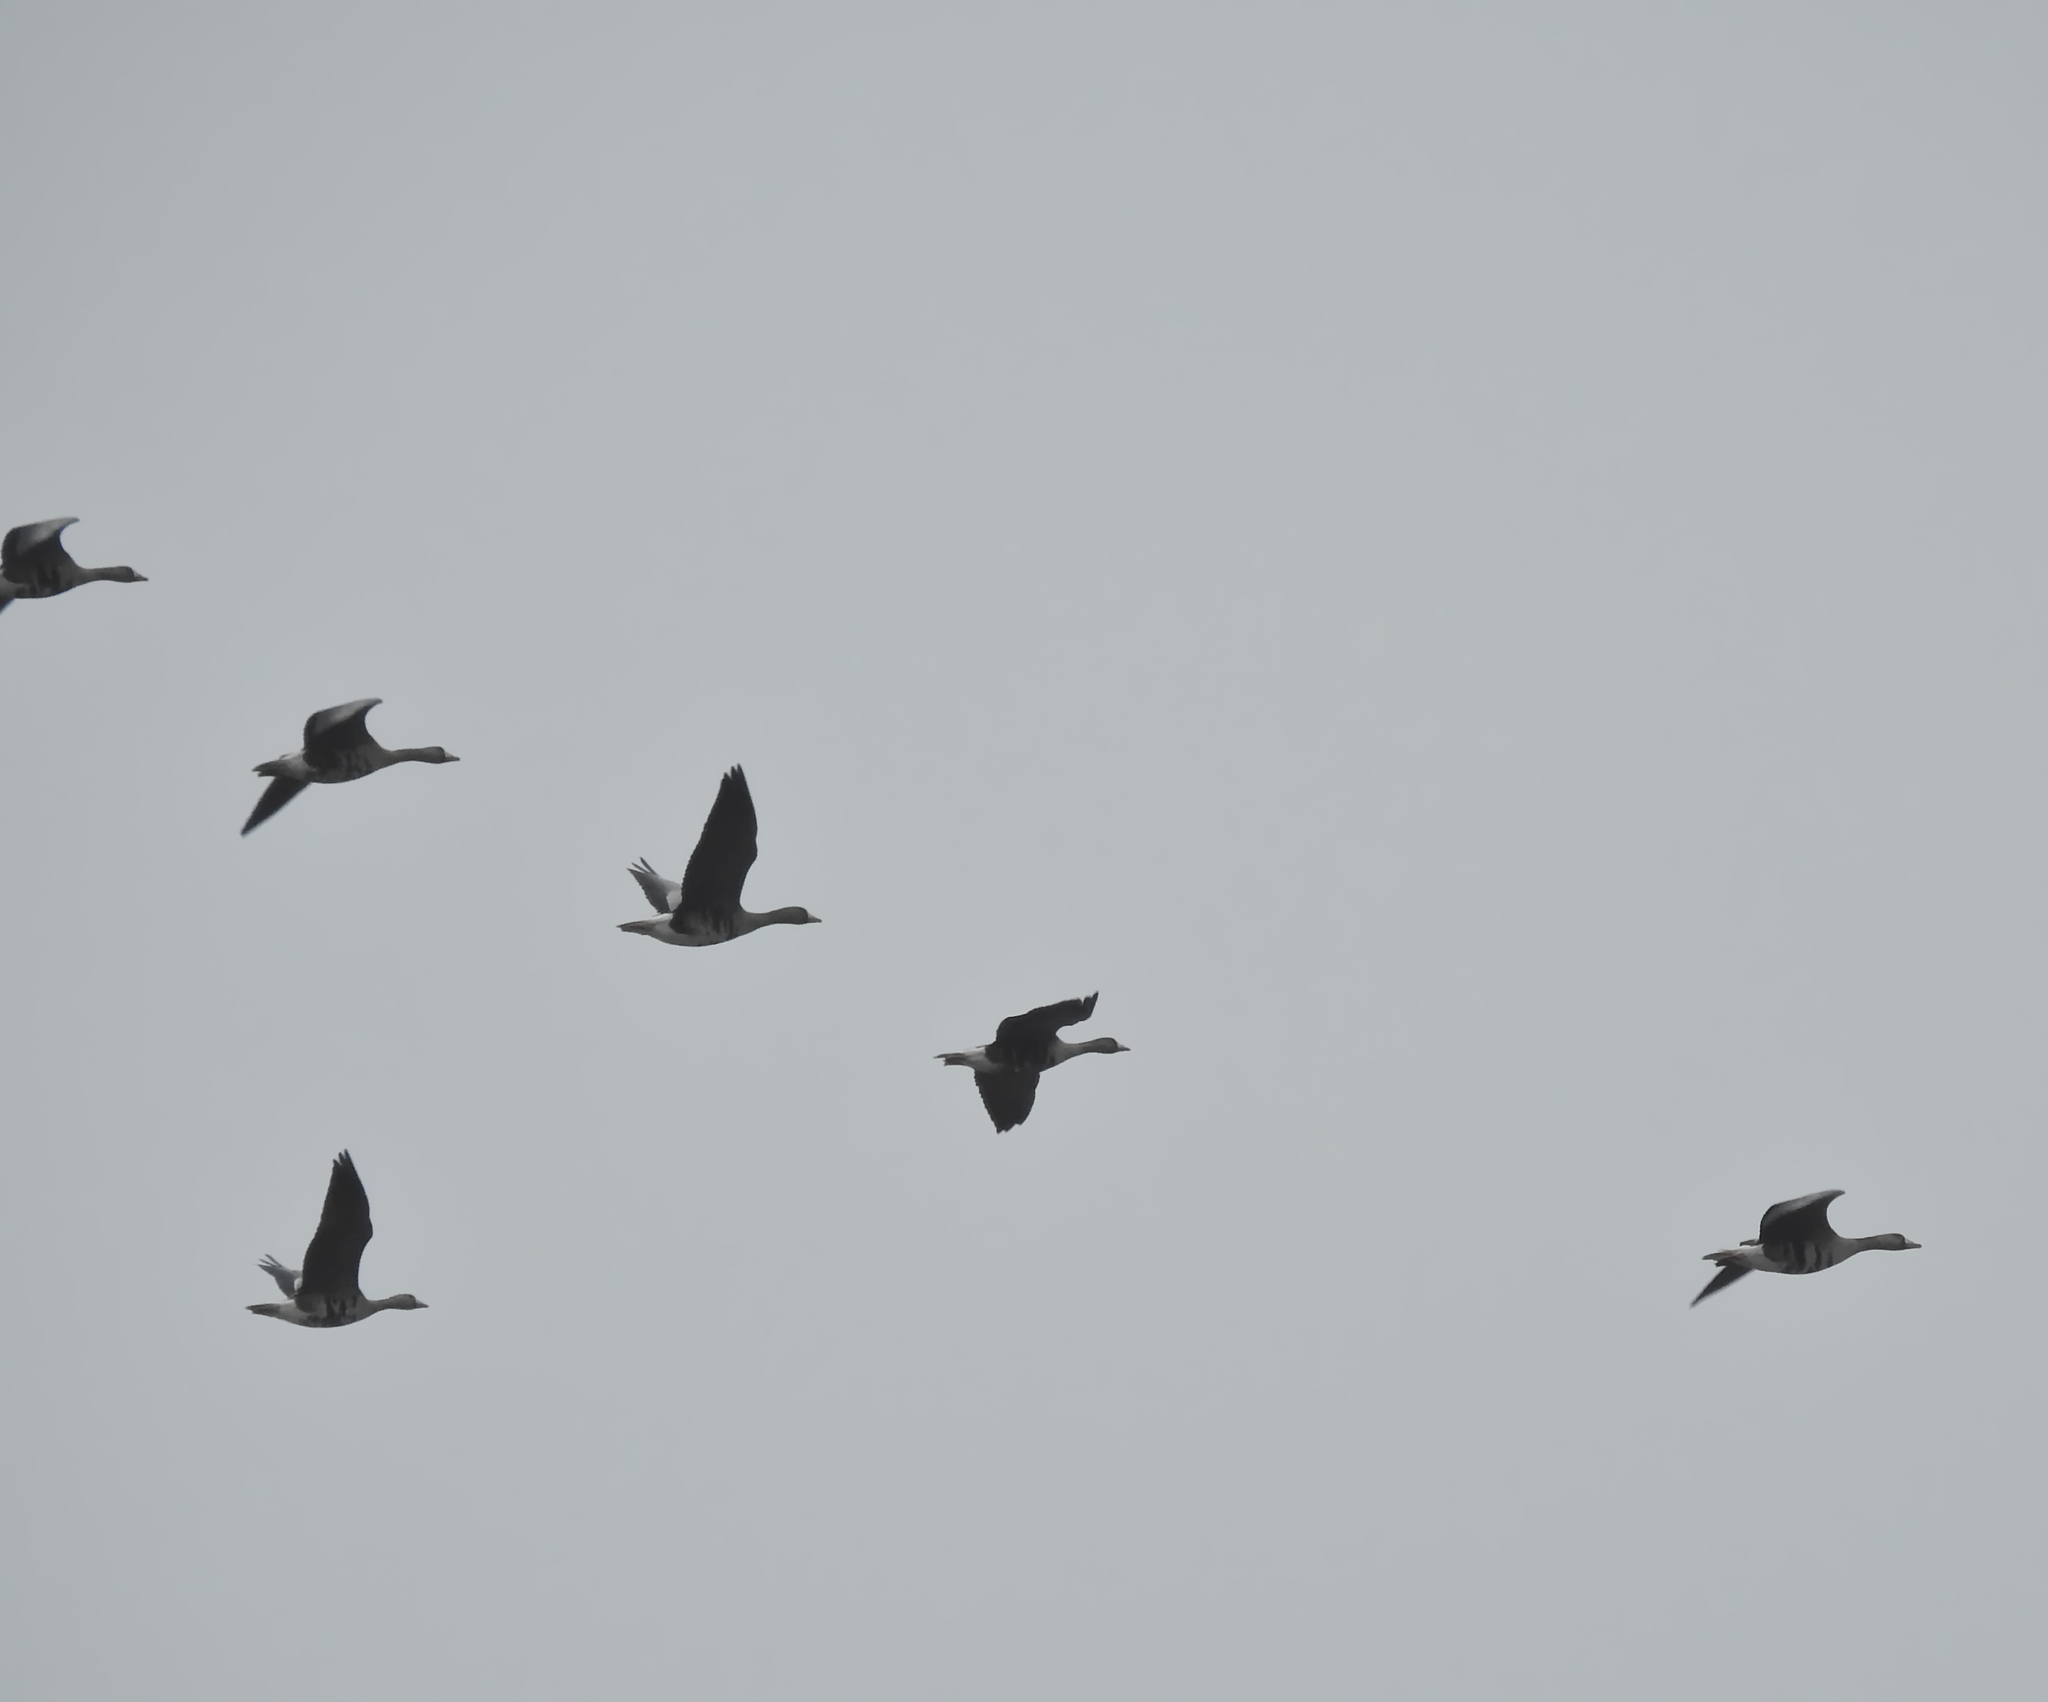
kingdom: Animalia
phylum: Chordata
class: Aves
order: Anseriformes
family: Anatidae
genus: Anser
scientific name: Anser albifrons
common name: Greater white-fronted goose
